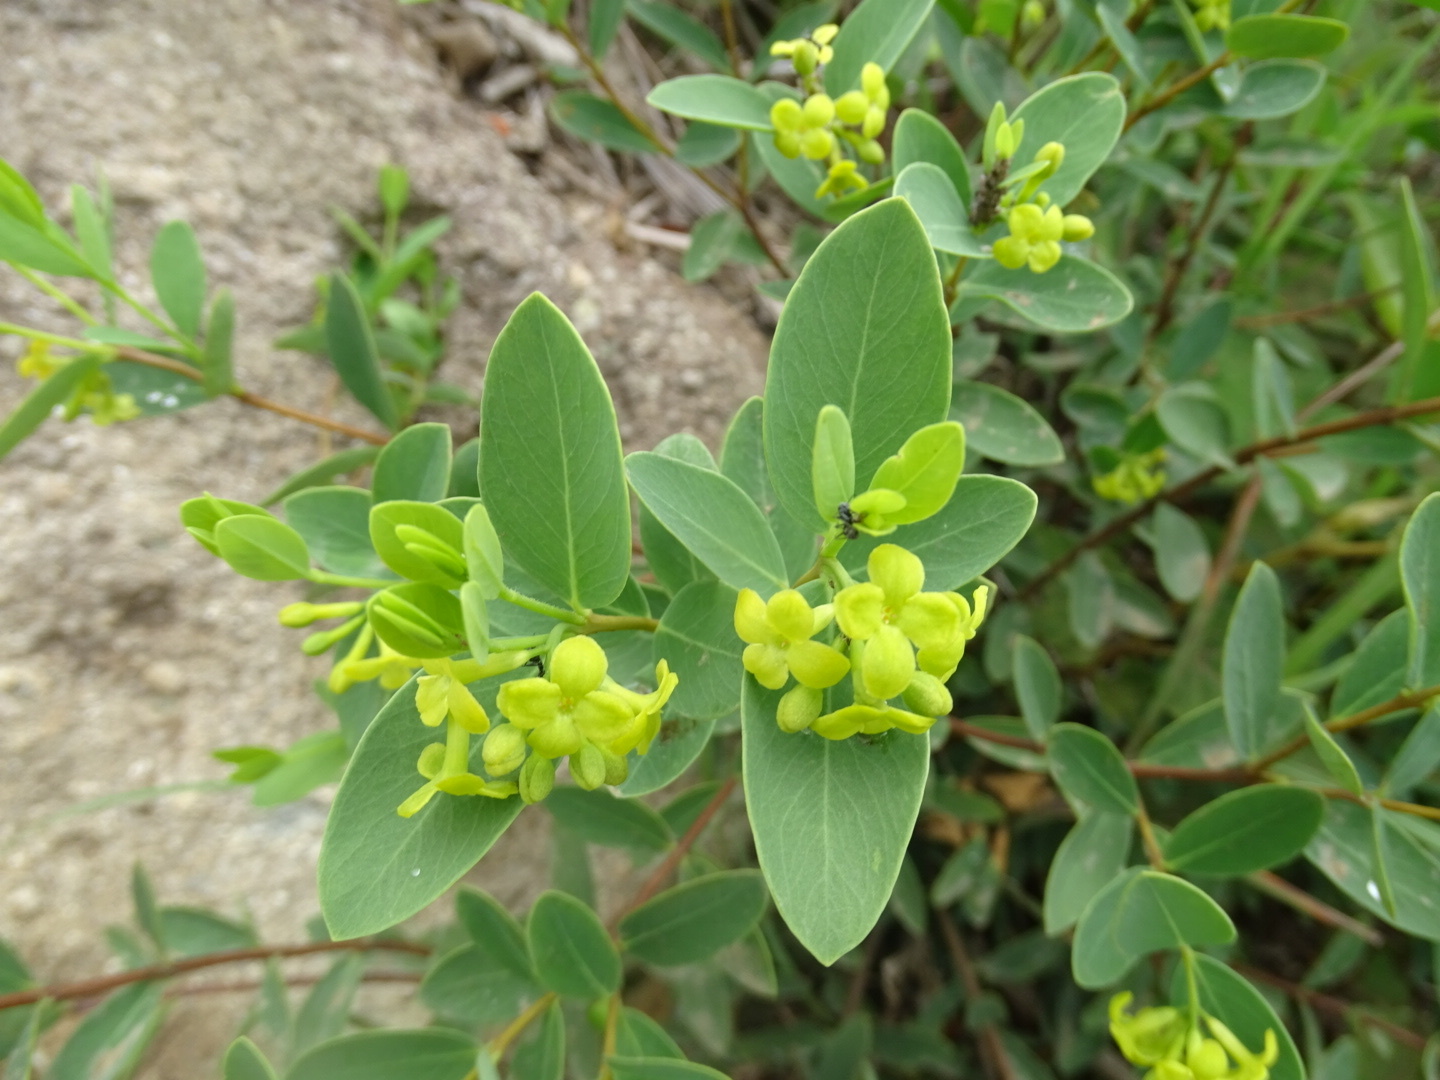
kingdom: Plantae
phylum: Tracheophyta
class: Magnoliopsida
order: Malvales
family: Thymelaeaceae
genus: Wikstroemia
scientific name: Wikstroemia indica
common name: Tiebush
